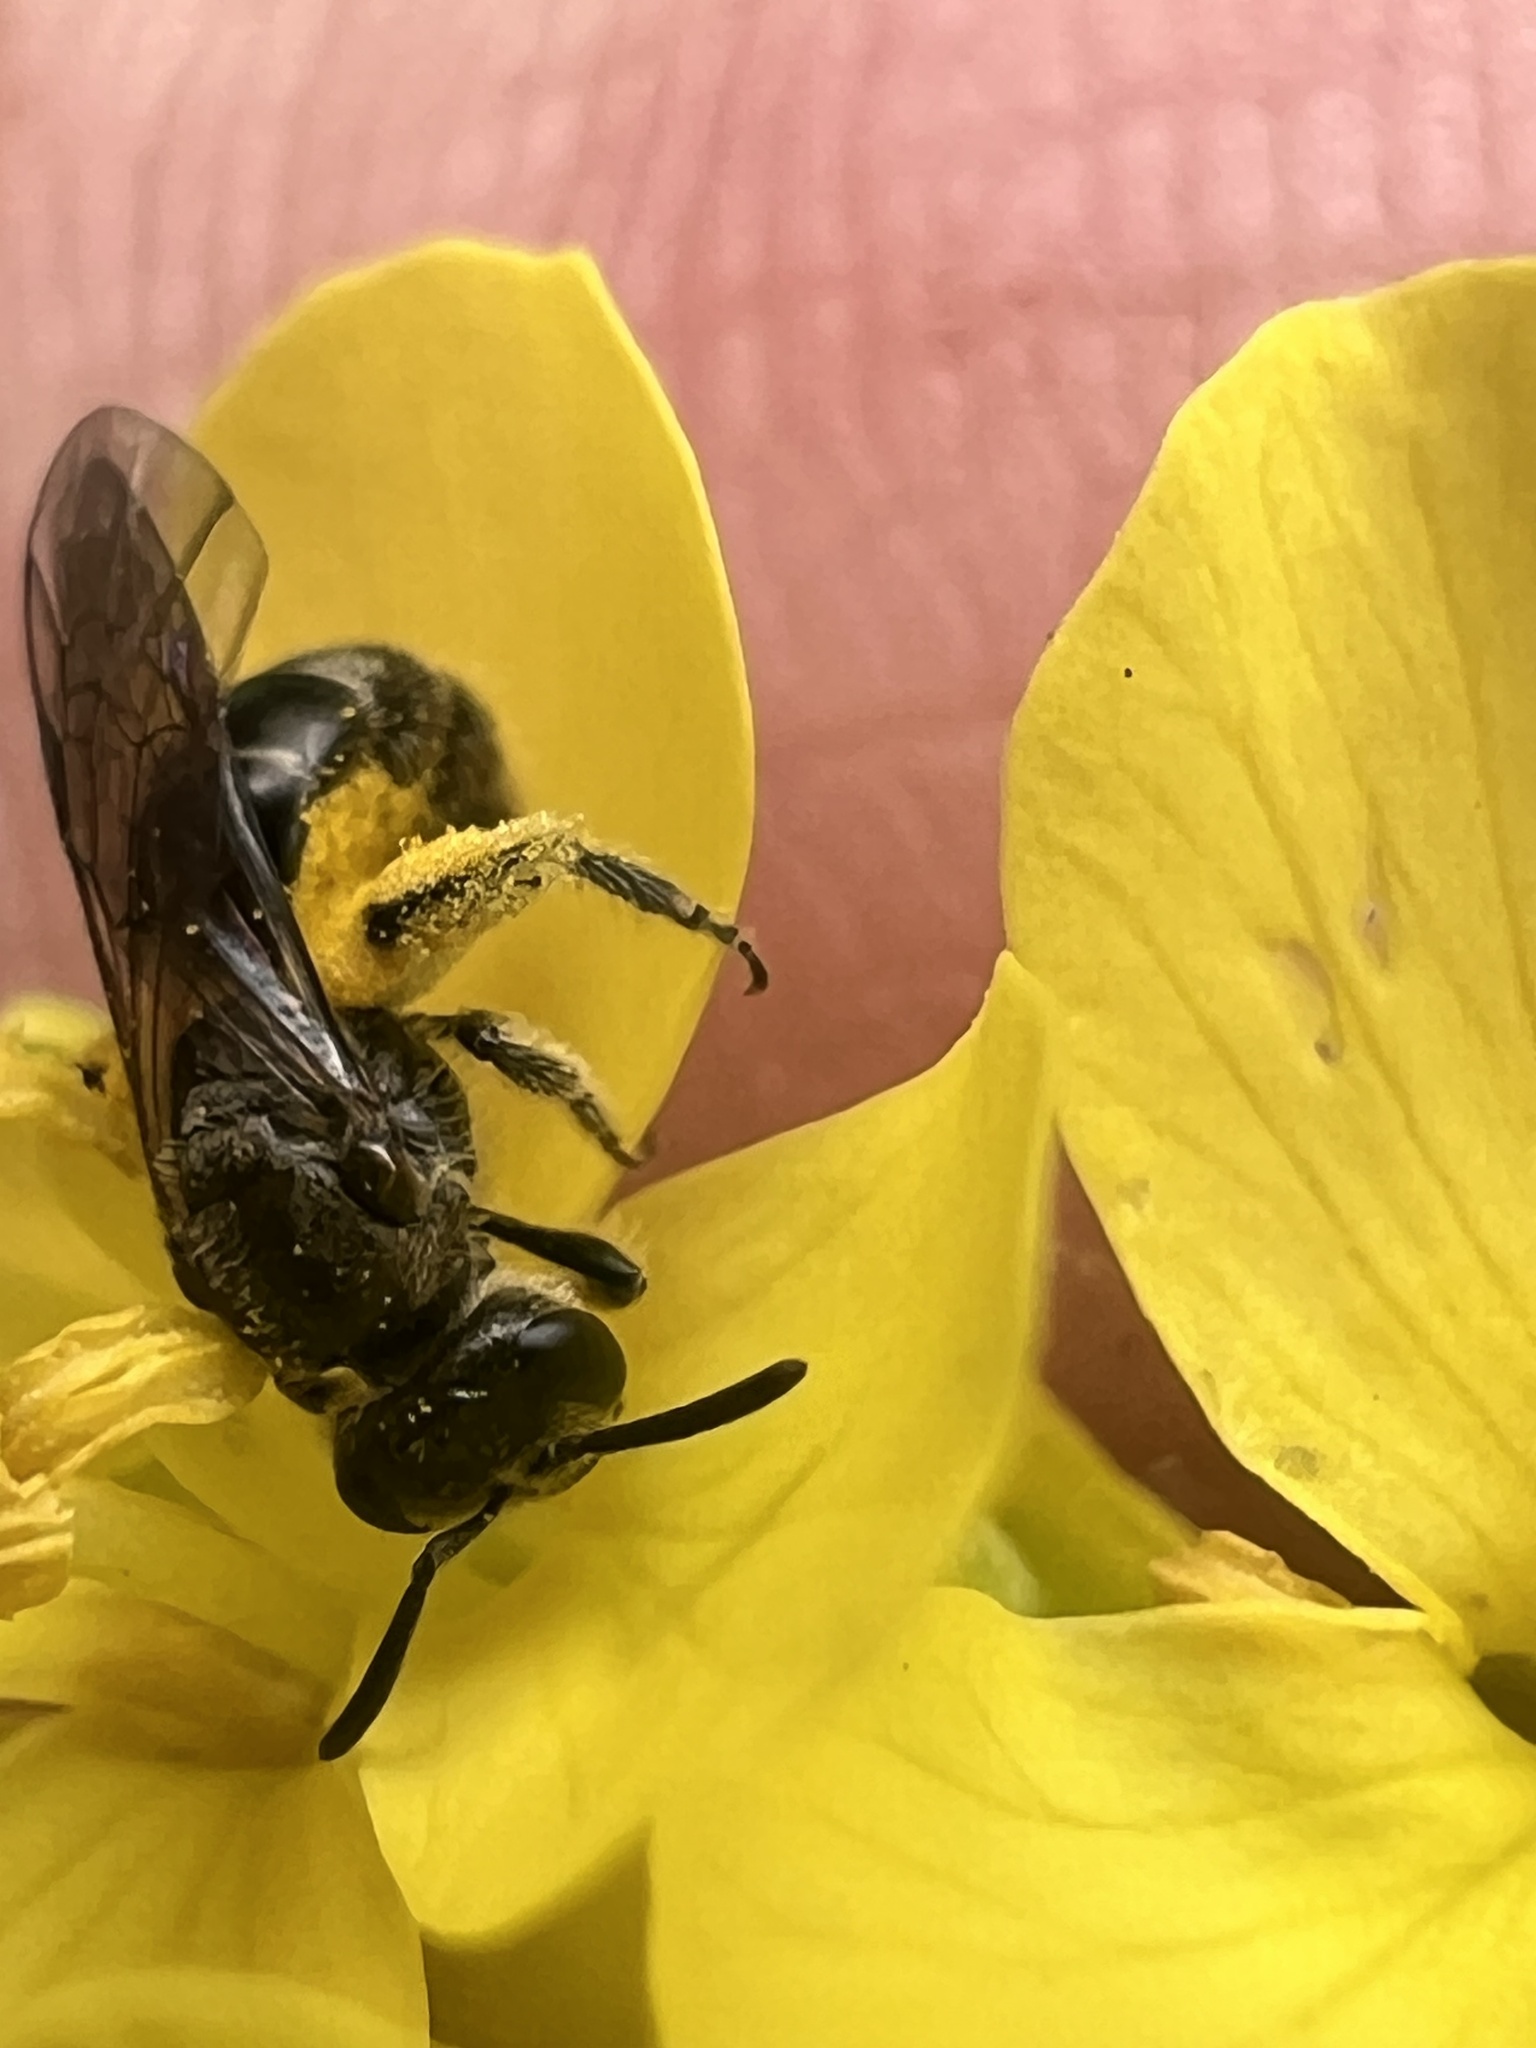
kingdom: Animalia
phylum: Arthropoda
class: Insecta
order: Hymenoptera
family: Halictidae
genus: Lasioglossum
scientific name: Lasioglossum sordidum
